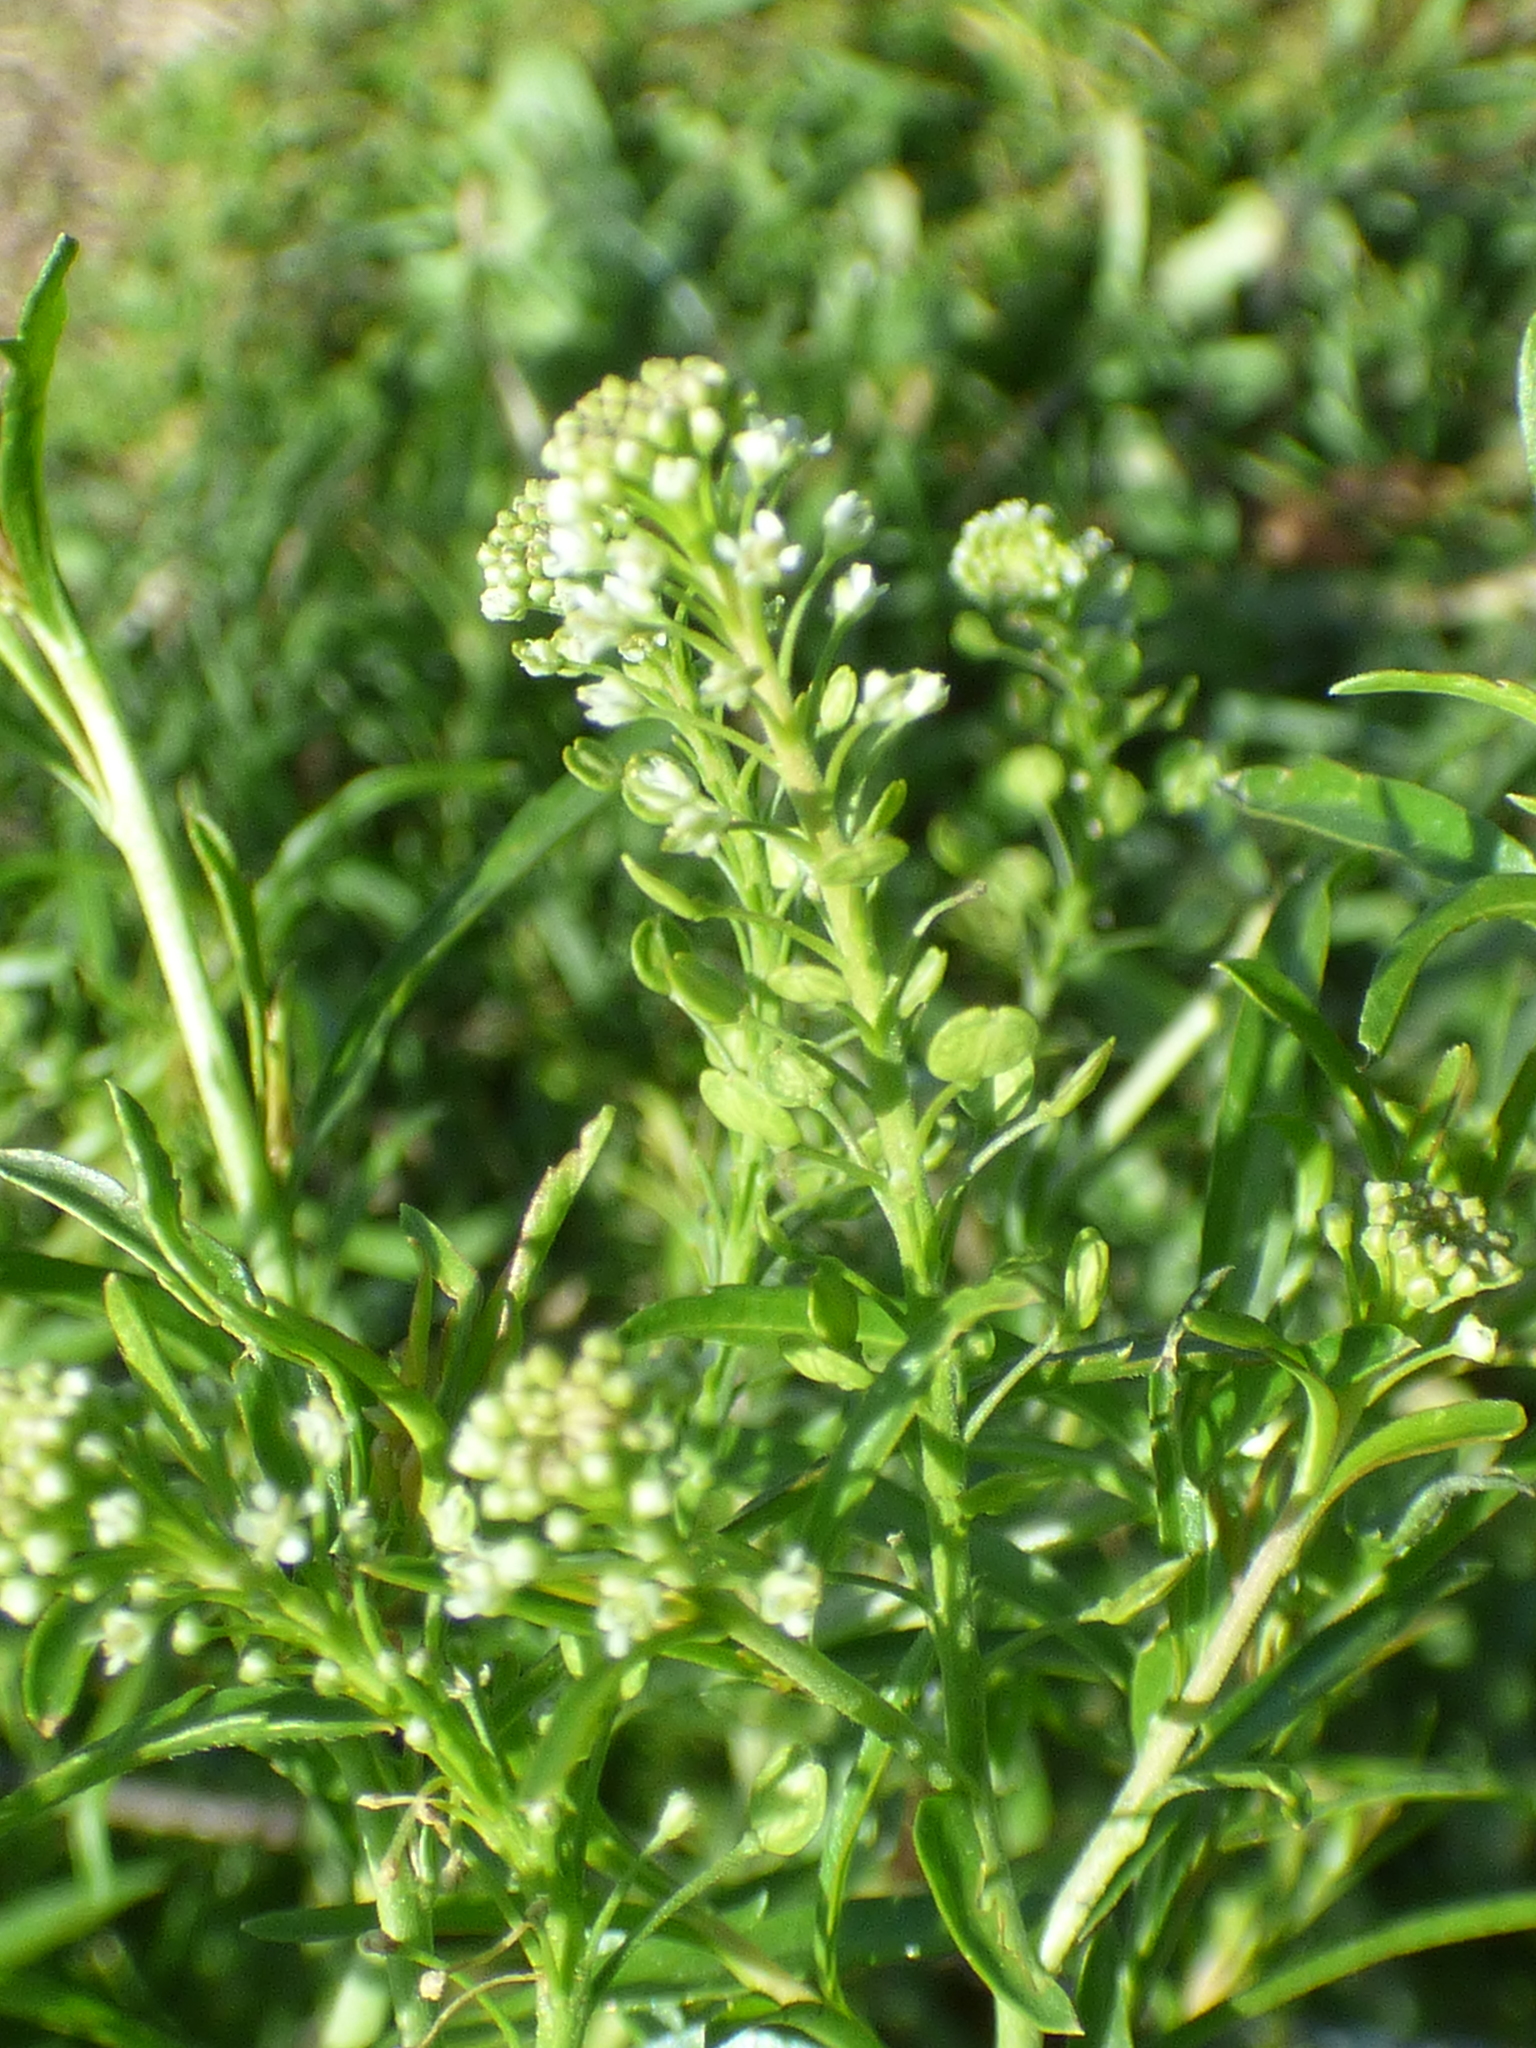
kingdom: Plantae
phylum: Tracheophyta
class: Magnoliopsida
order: Brassicales
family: Brassicaceae
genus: Lepidium
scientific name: Lepidium virginicum
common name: Least pepperwort
